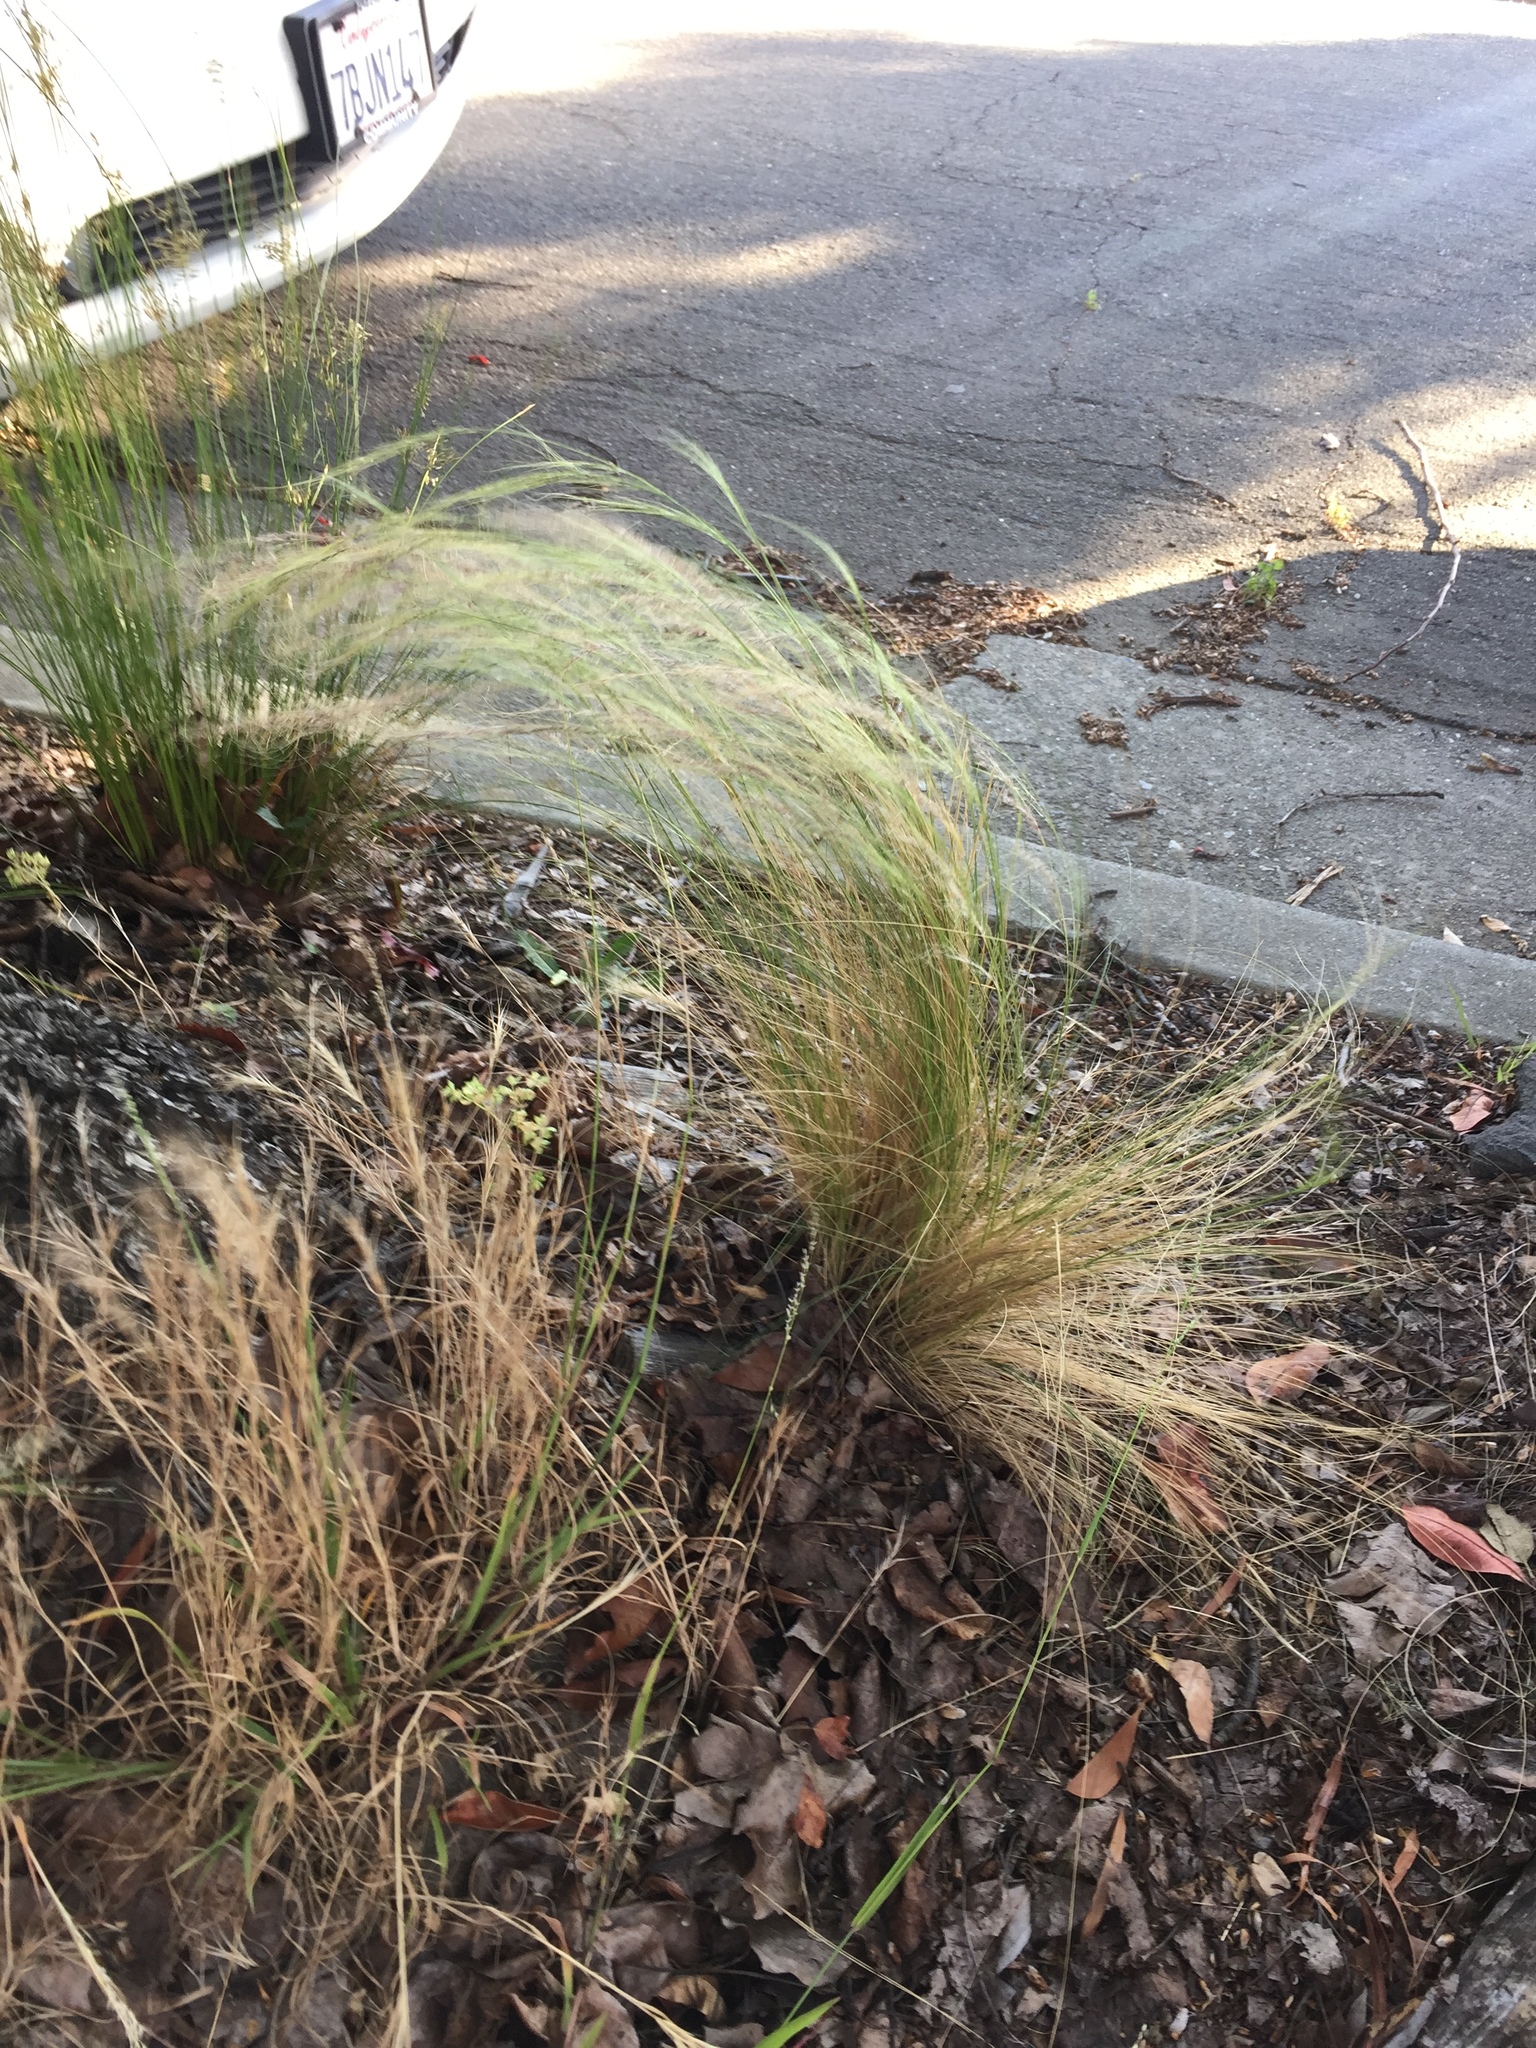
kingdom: Plantae
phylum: Tracheophyta
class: Liliopsida
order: Poales
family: Poaceae
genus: Nassella
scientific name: Nassella tenuissima
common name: Argentine needlegrass
